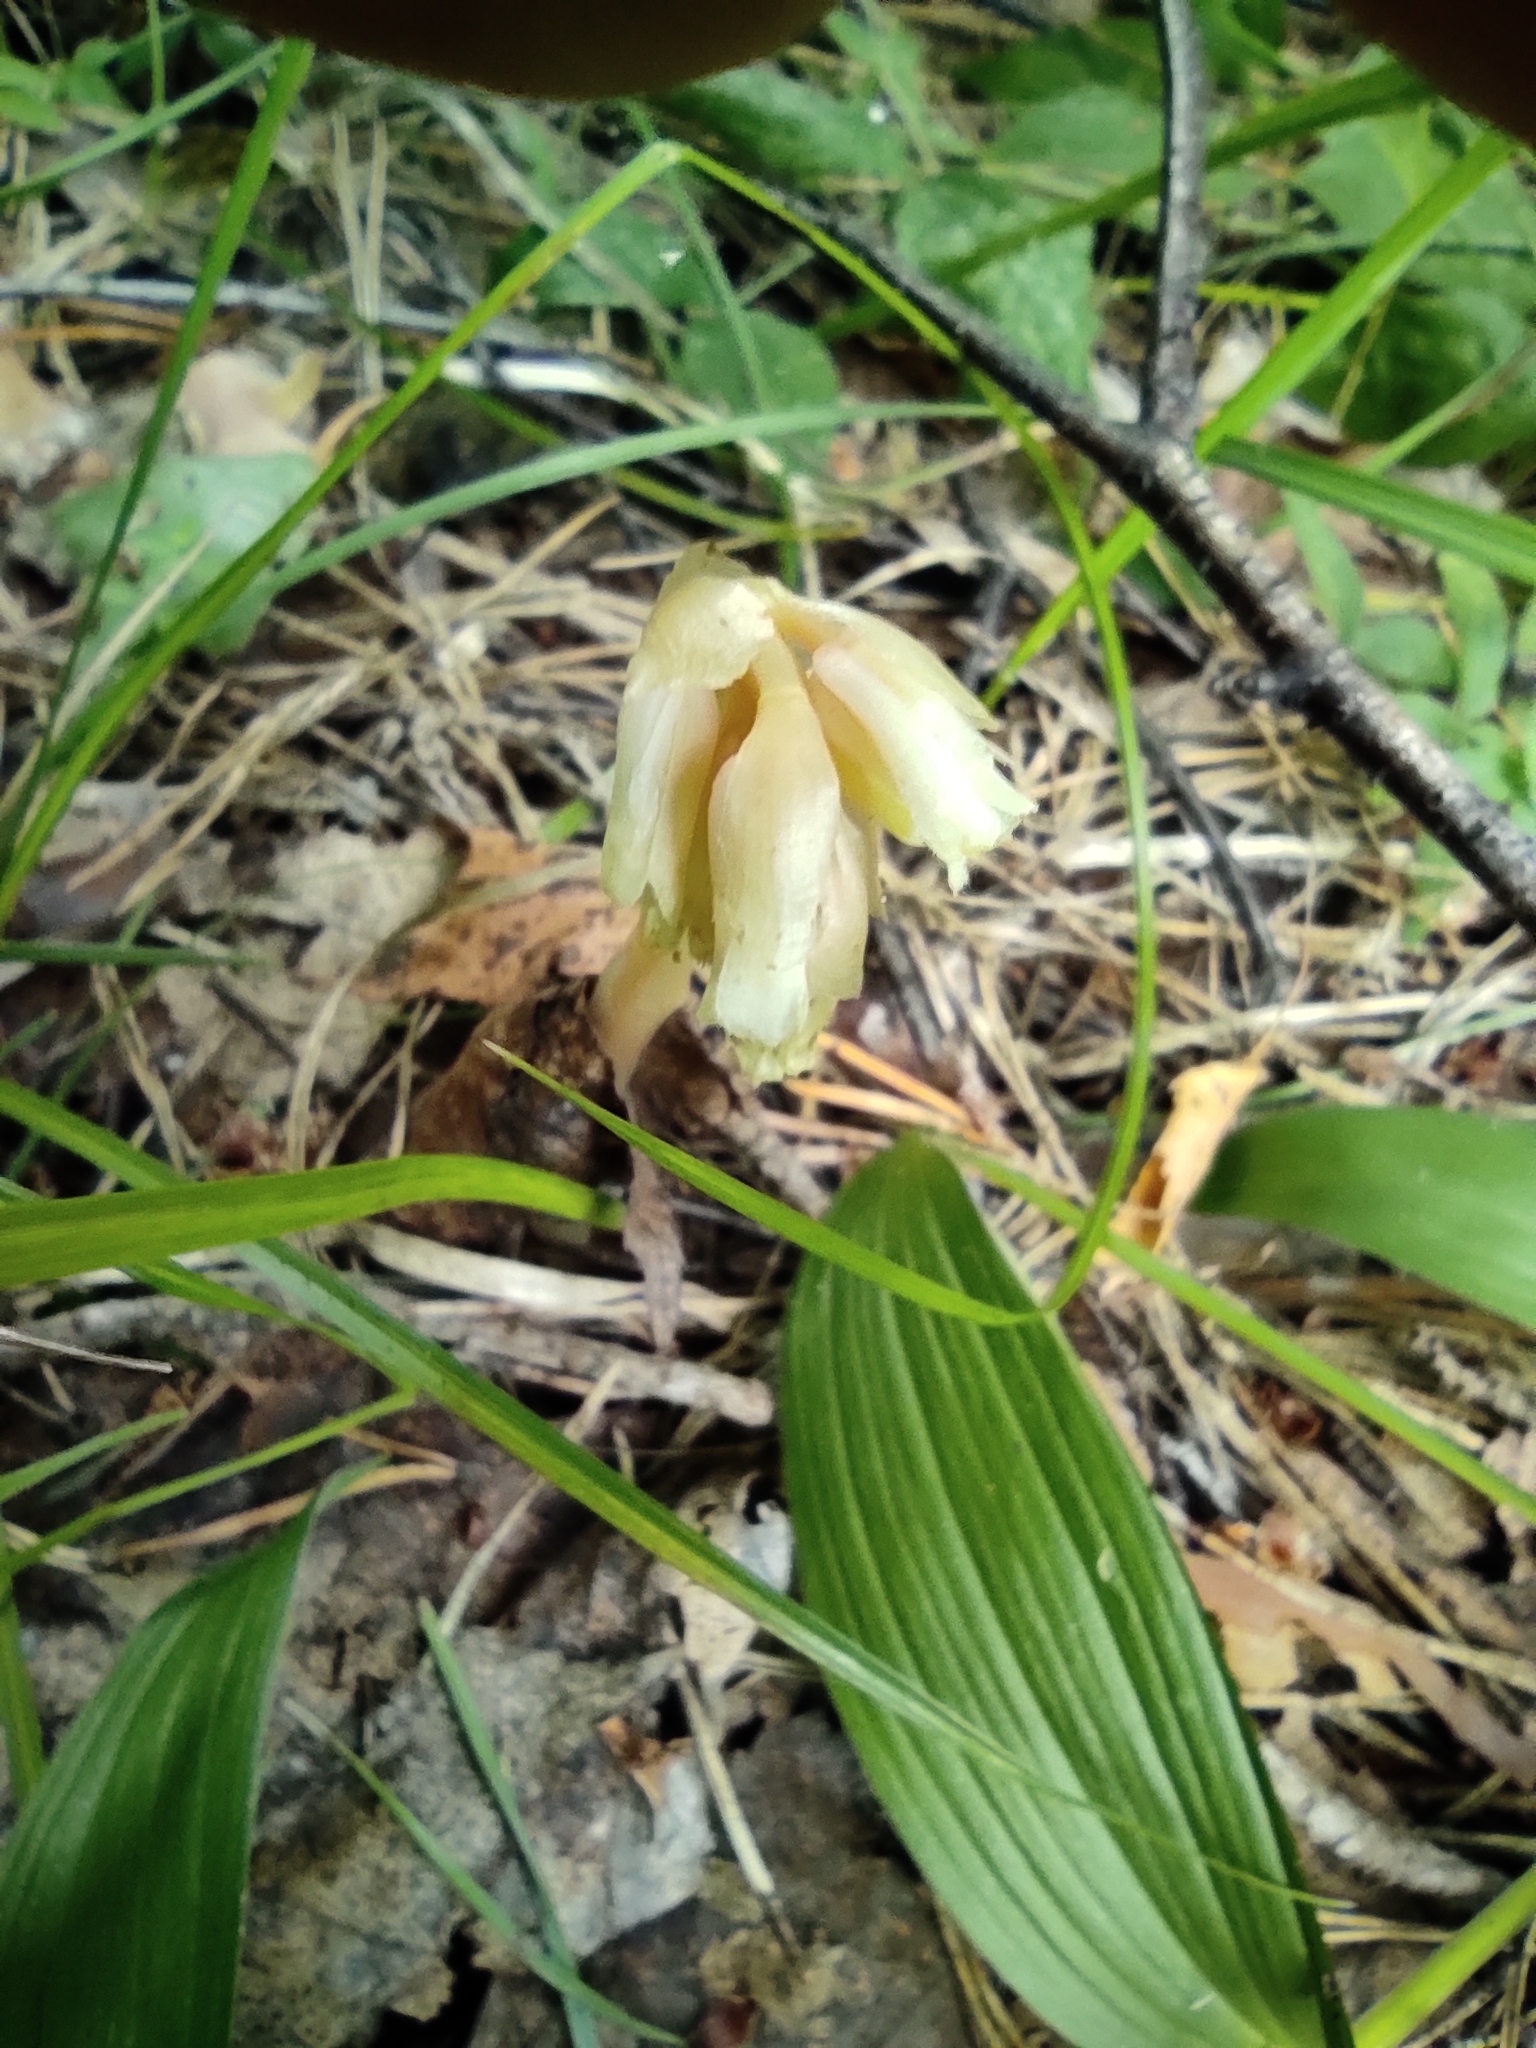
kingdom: Plantae
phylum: Tracheophyta
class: Magnoliopsida
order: Ericales
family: Ericaceae
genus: Hypopitys
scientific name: Hypopitys monotropa
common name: Yellow bird's-nest
